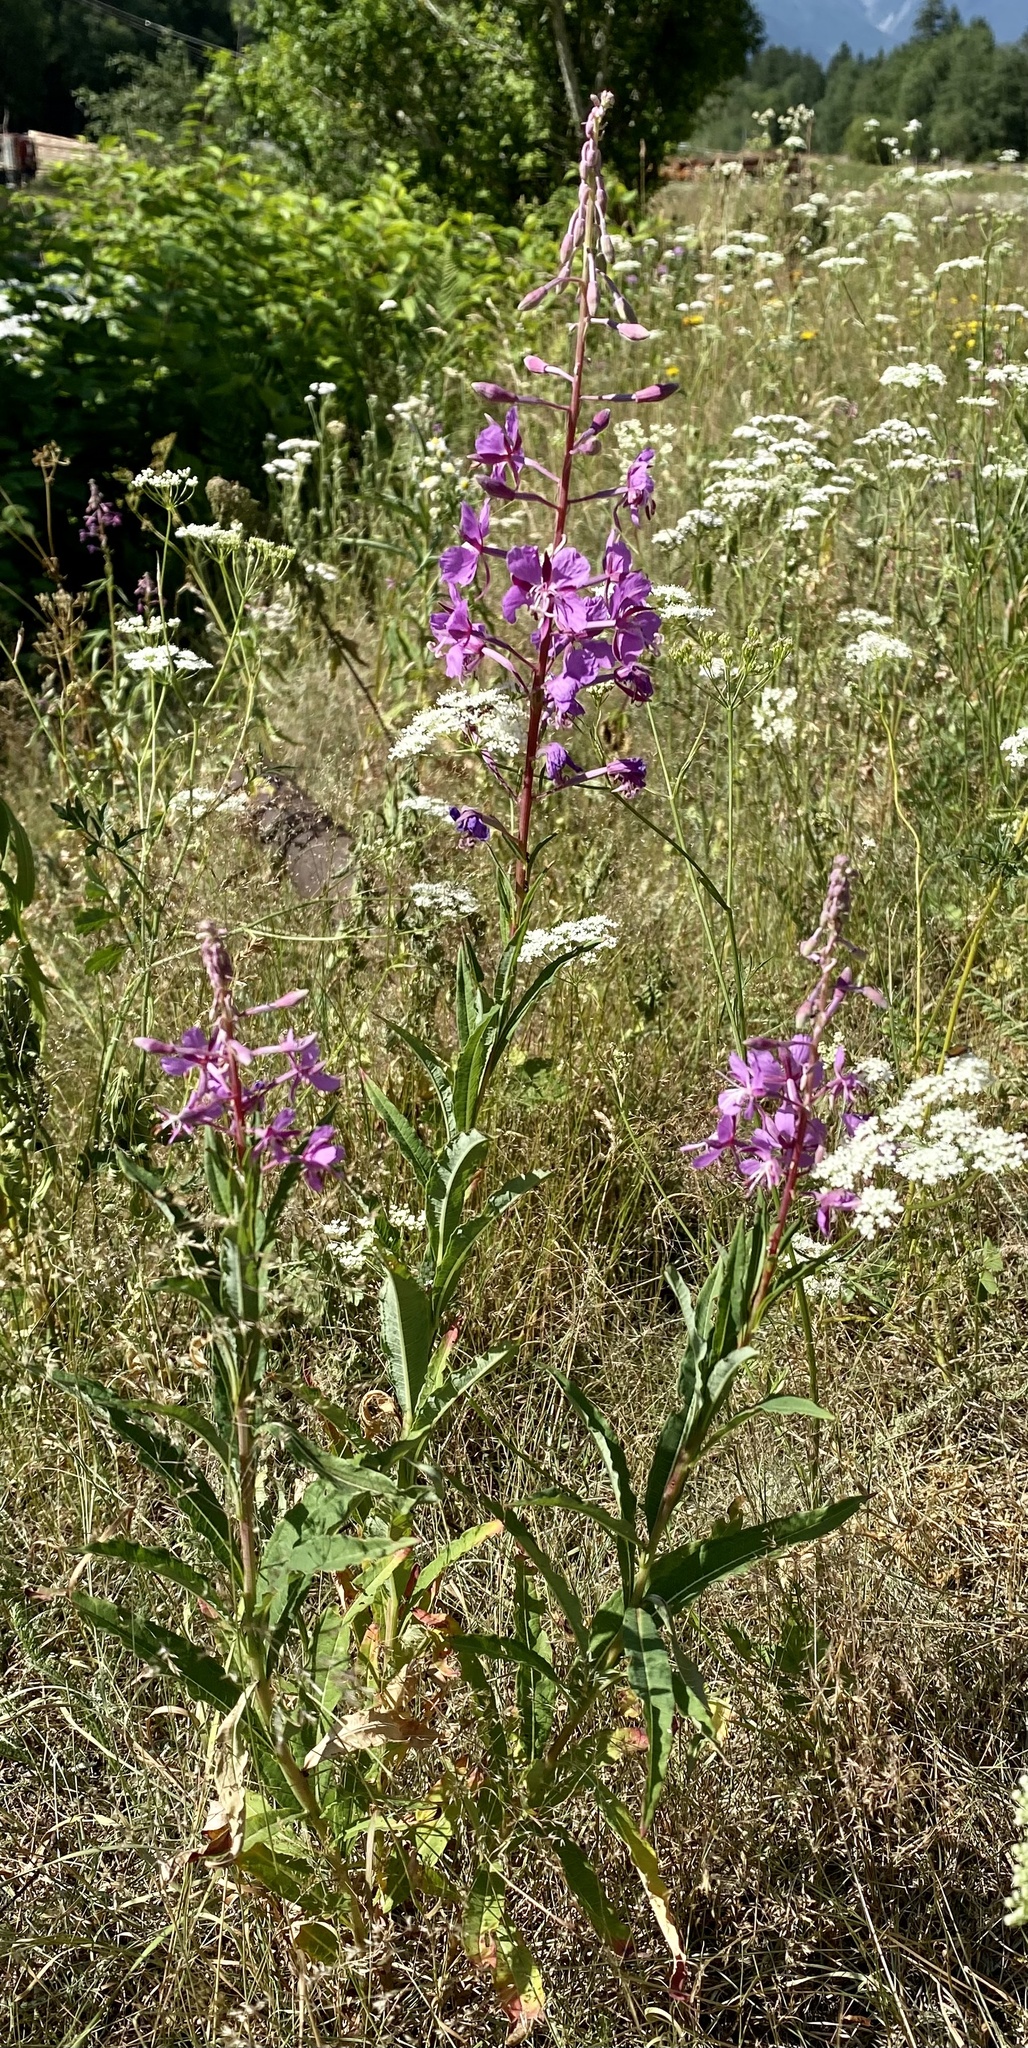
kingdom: Plantae
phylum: Tracheophyta
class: Magnoliopsida
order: Myrtales
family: Onagraceae
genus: Chamaenerion
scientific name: Chamaenerion angustifolium
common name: Fireweed
